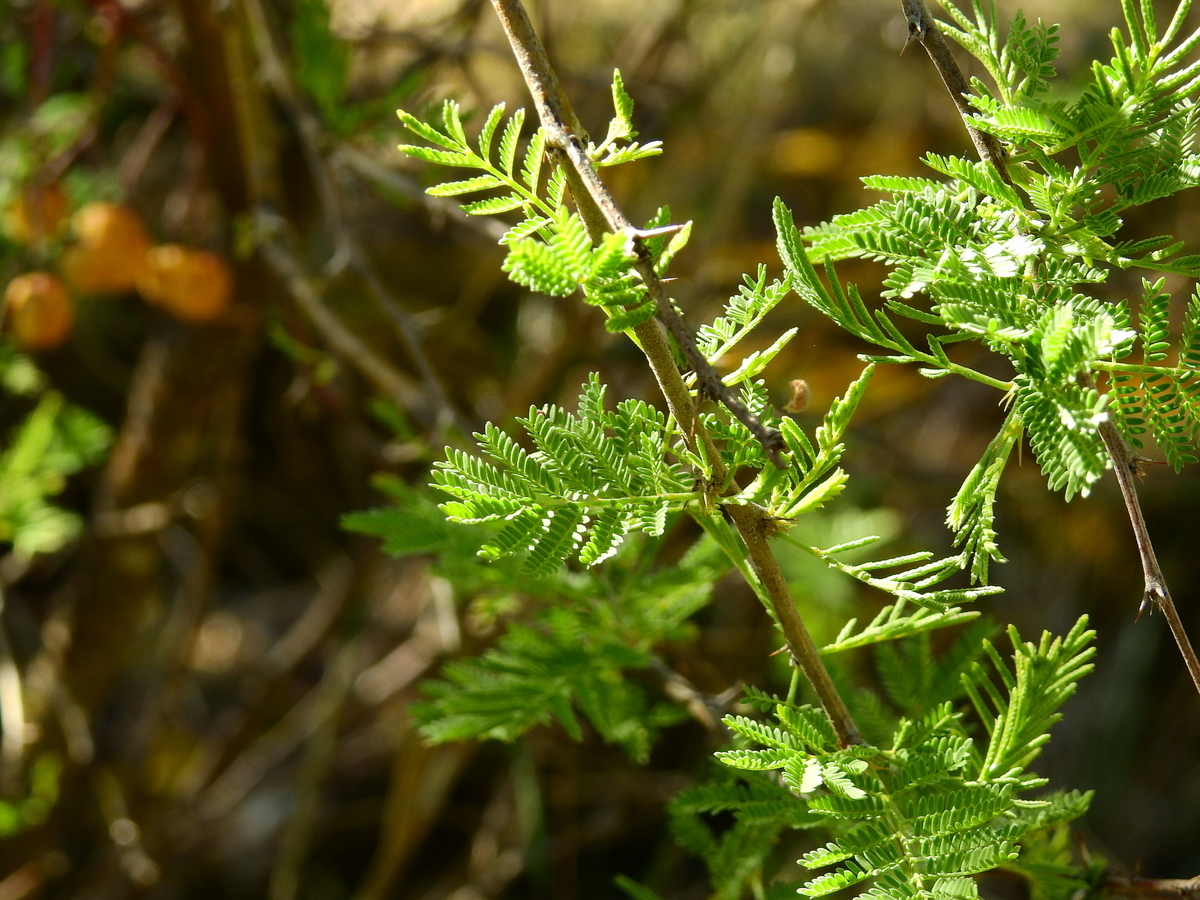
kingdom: Plantae
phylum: Tracheophyta
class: Magnoliopsida
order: Fabales
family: Fabaceae
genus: Vachellia
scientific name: Vachellia caven
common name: Roman cassie
